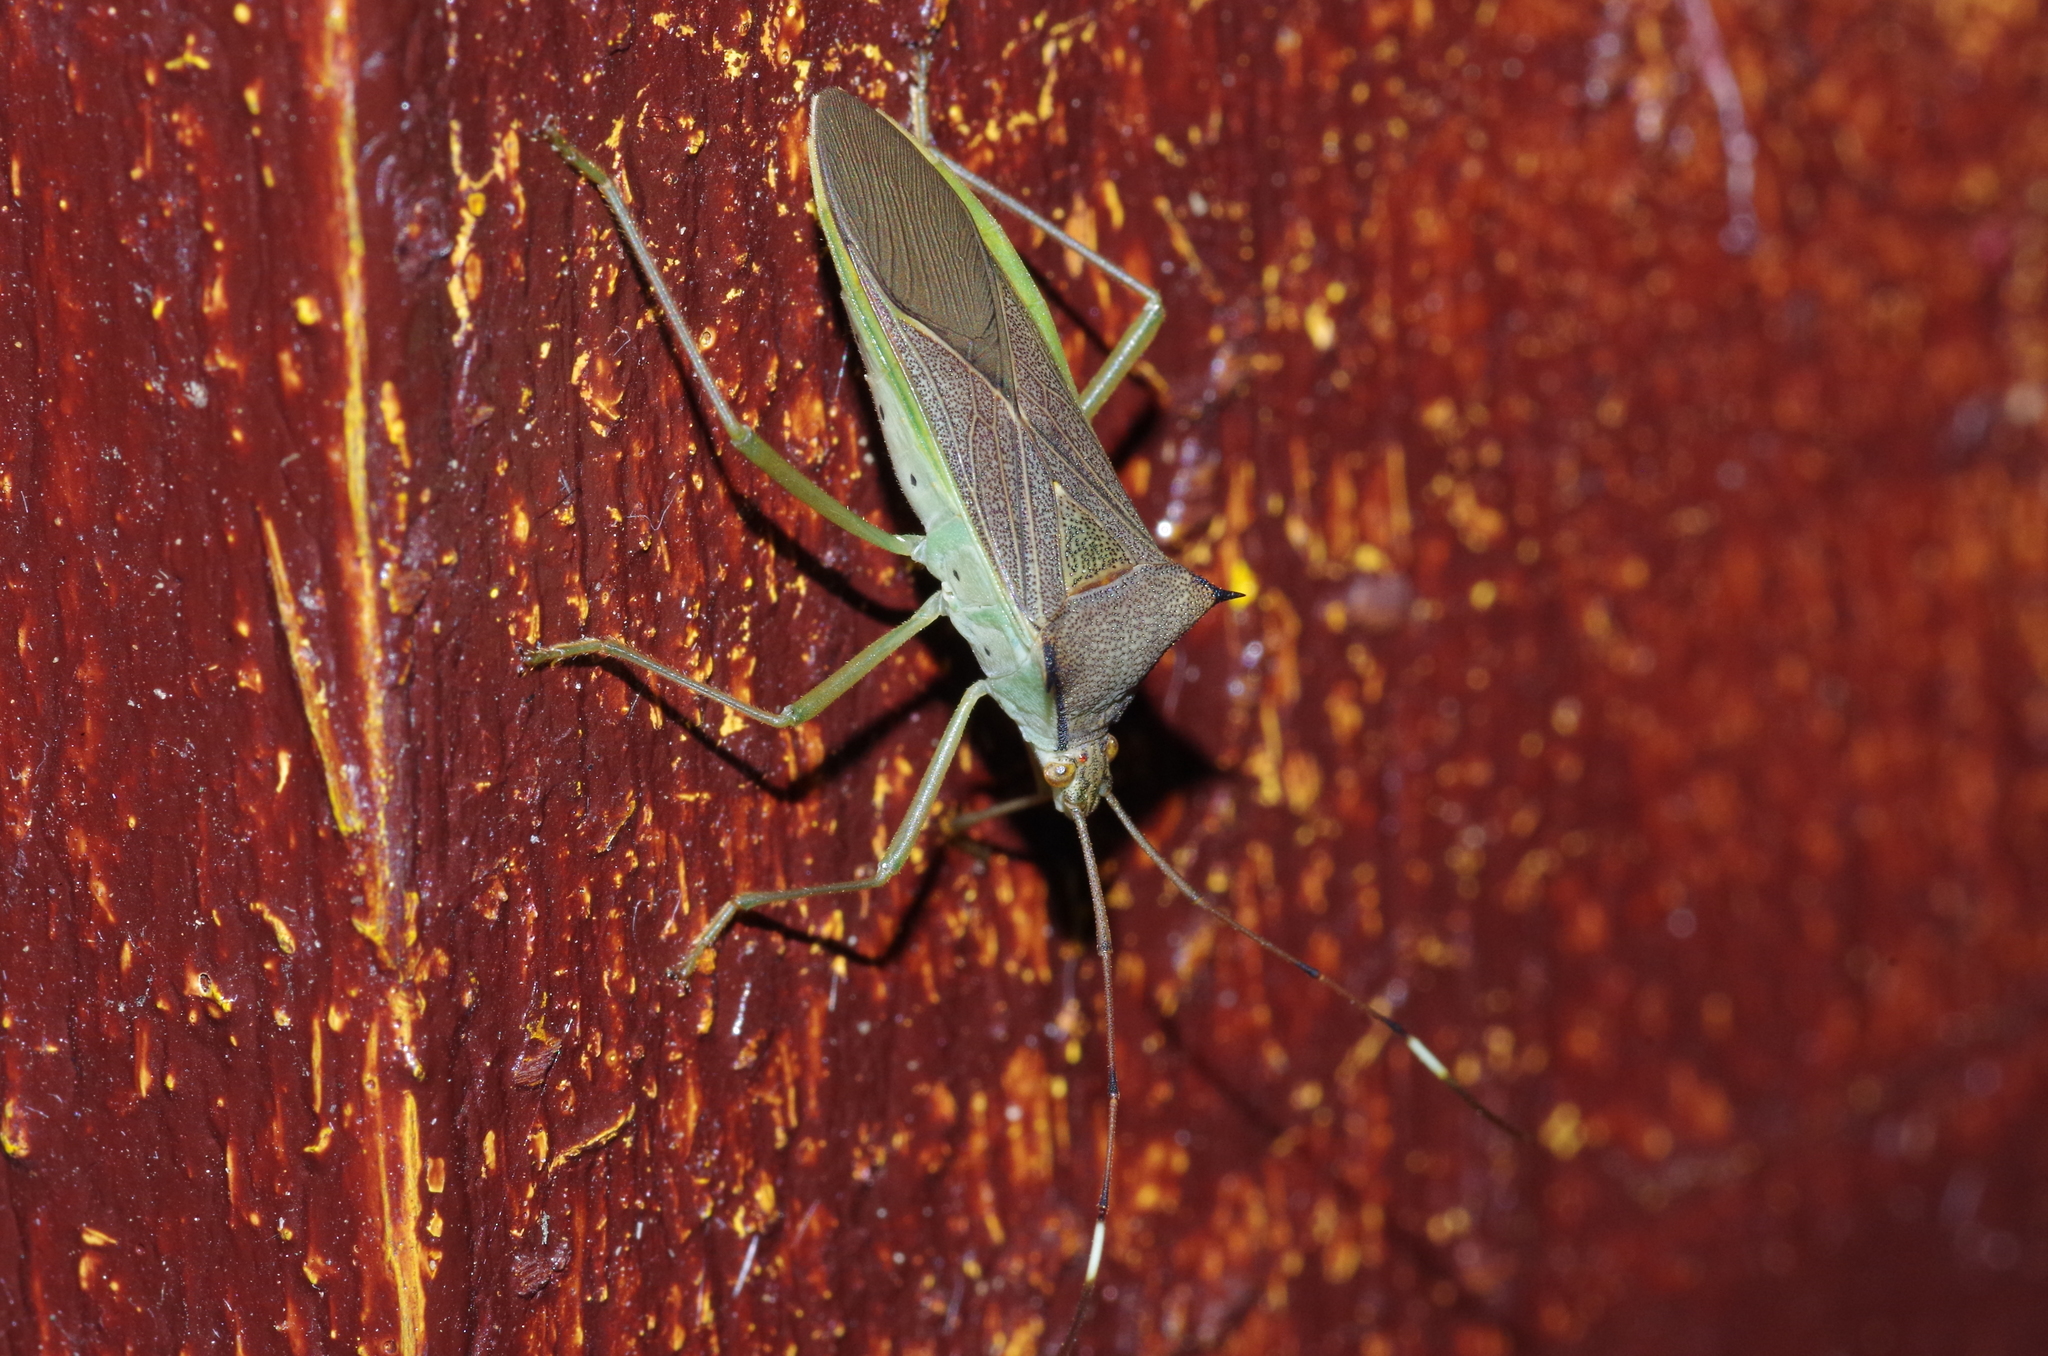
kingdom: Animalia
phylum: Arthropoda
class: Insecta
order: Hemiptera
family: Coreidae
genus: Paradasynus
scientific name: Paradasynus spinosus
